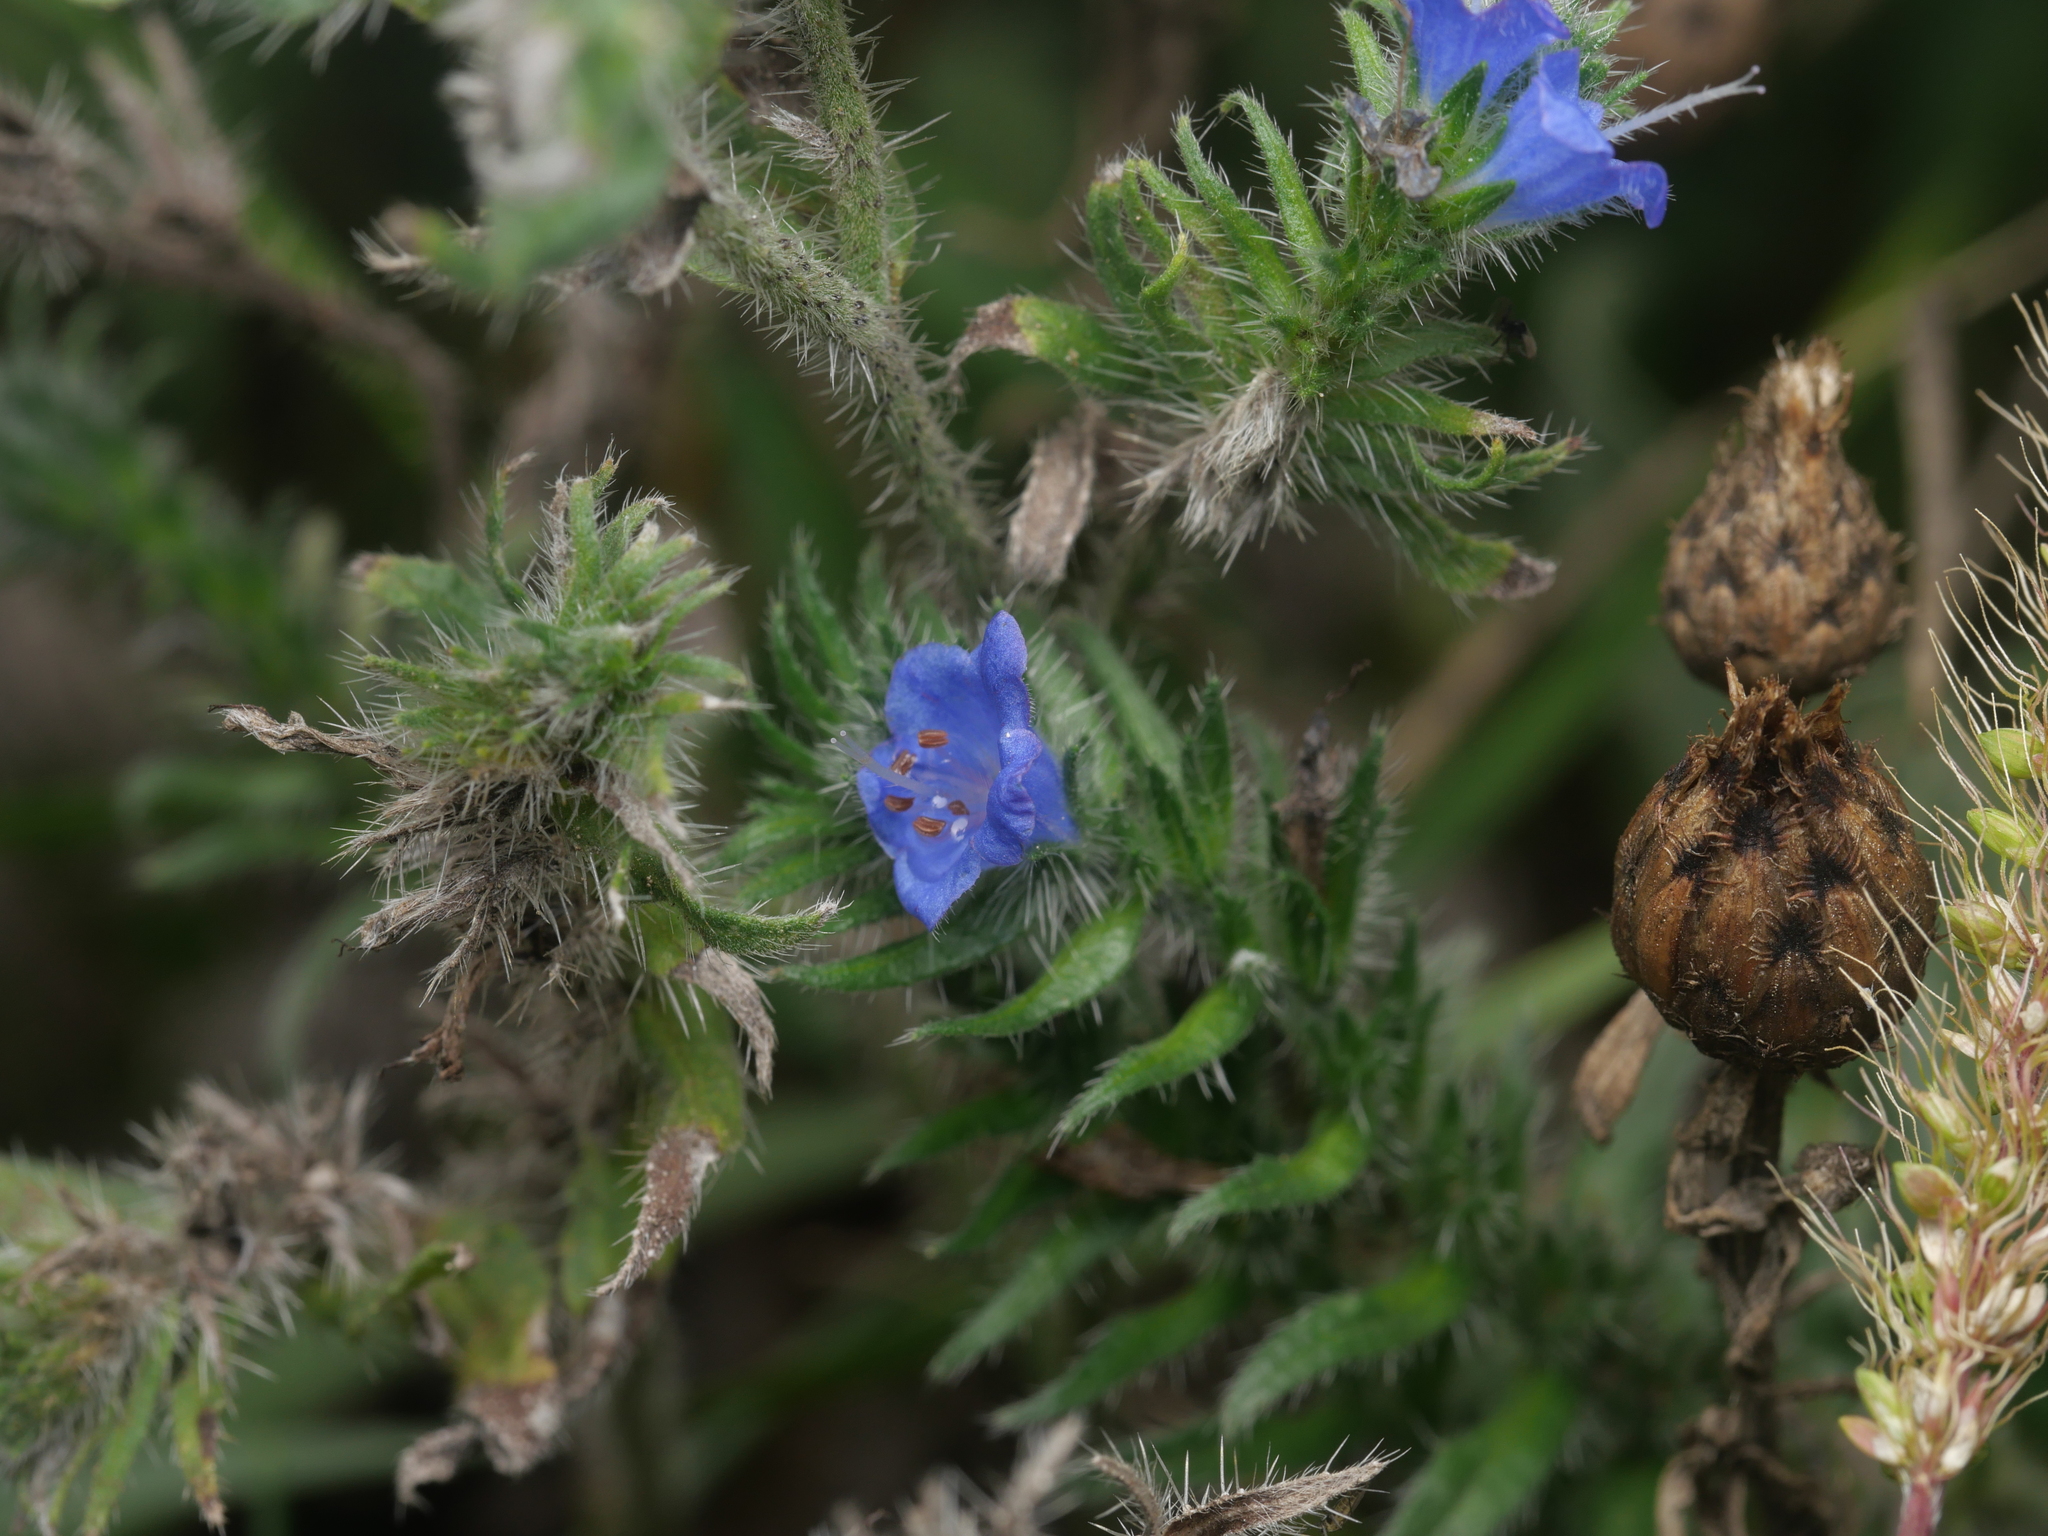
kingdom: Plantae
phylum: Tracheophyta
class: Magnoliopsida
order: Boraginales
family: Boraginaceae
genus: Echium
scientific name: Echium vulgare
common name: Common viper's bugloss
